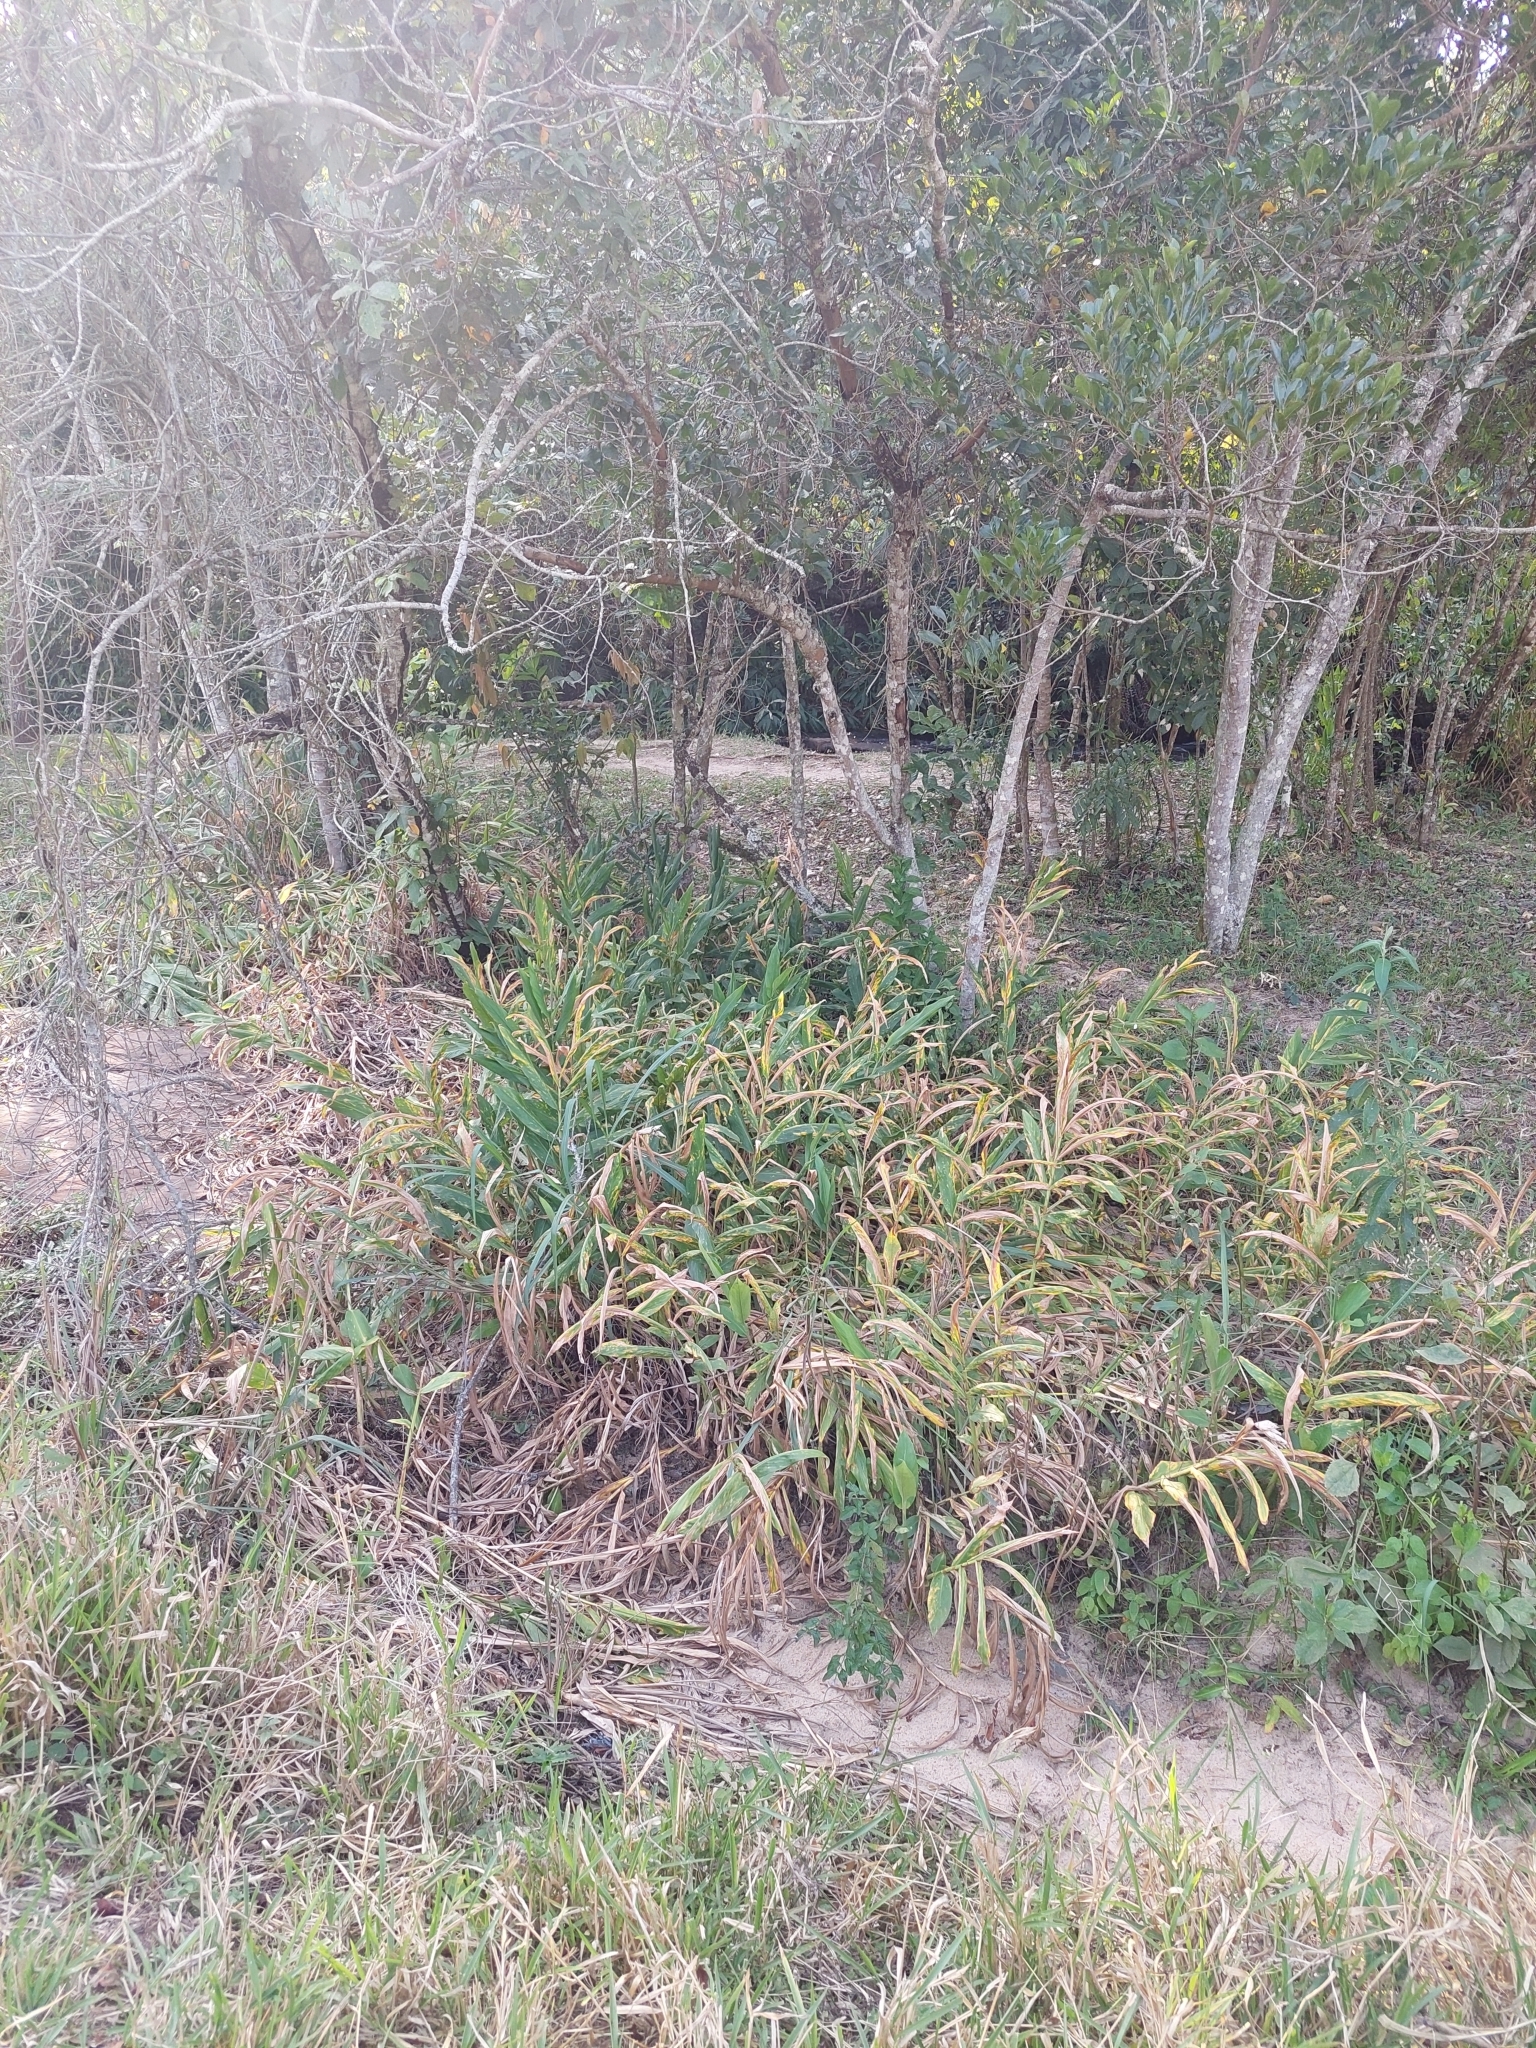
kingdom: Plantae
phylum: Tracheophyta
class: Liliopsida
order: Zingiberales
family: Zingiberaceae
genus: Hedychium
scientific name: Hedychium coronarium
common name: White garland-lily
